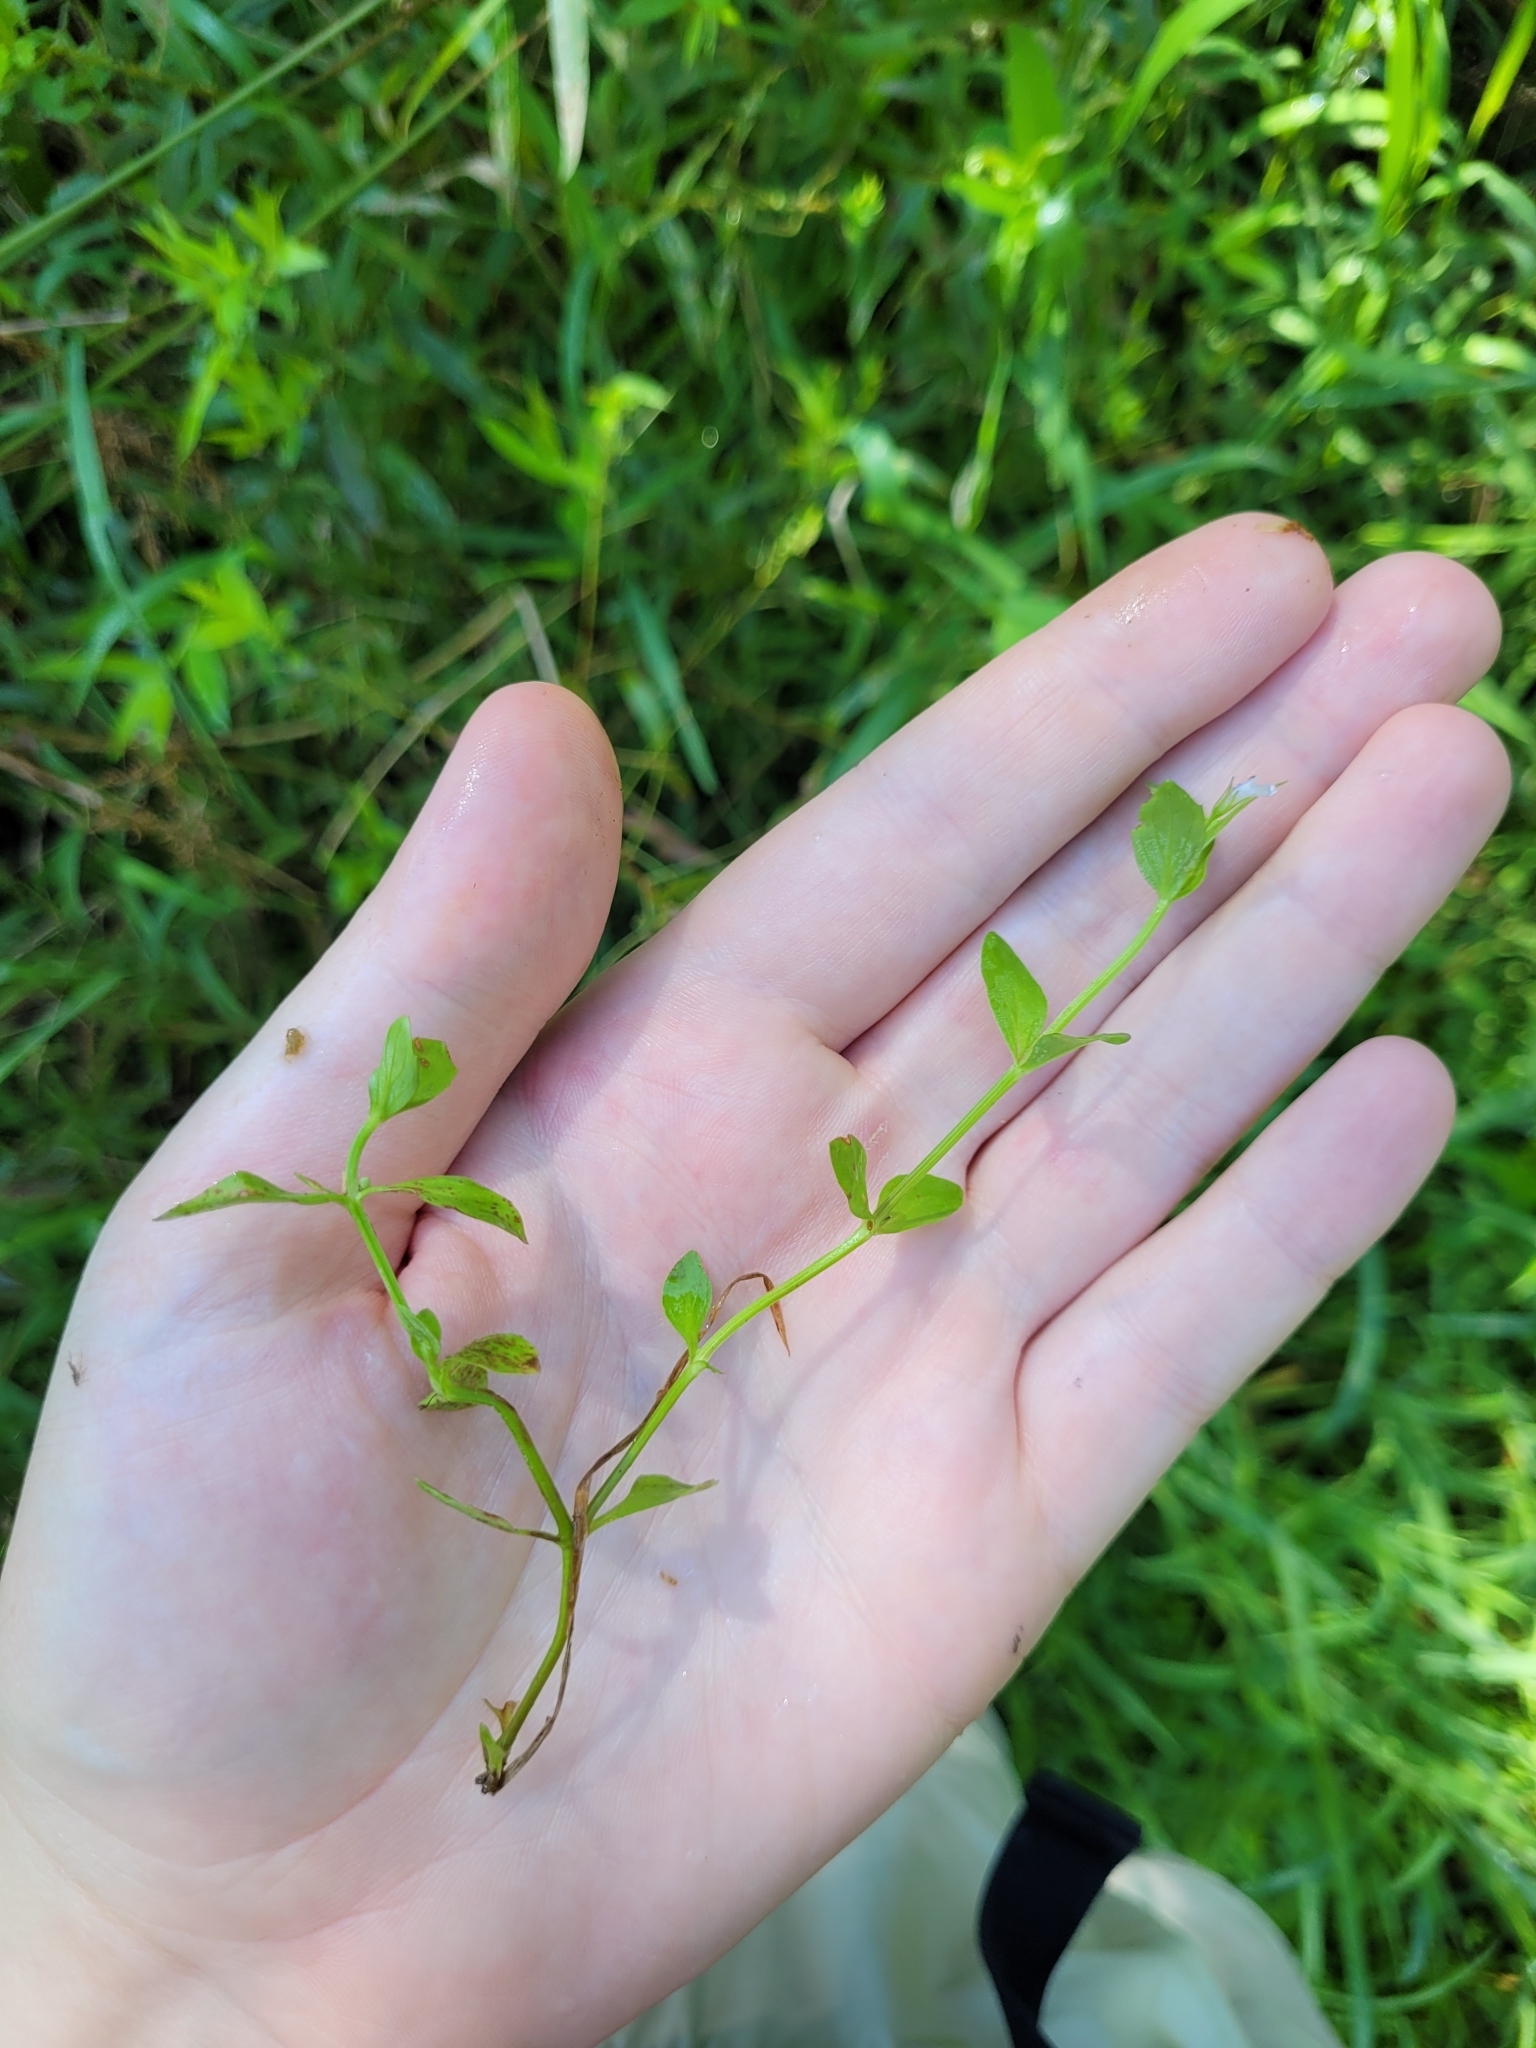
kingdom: Plantae
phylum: Tracheophyta
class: Magnoliopsida
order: Lamiales
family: Linderniaceae
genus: Lindernia
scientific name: Lindernia dubia
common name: Annual false pimpernel
